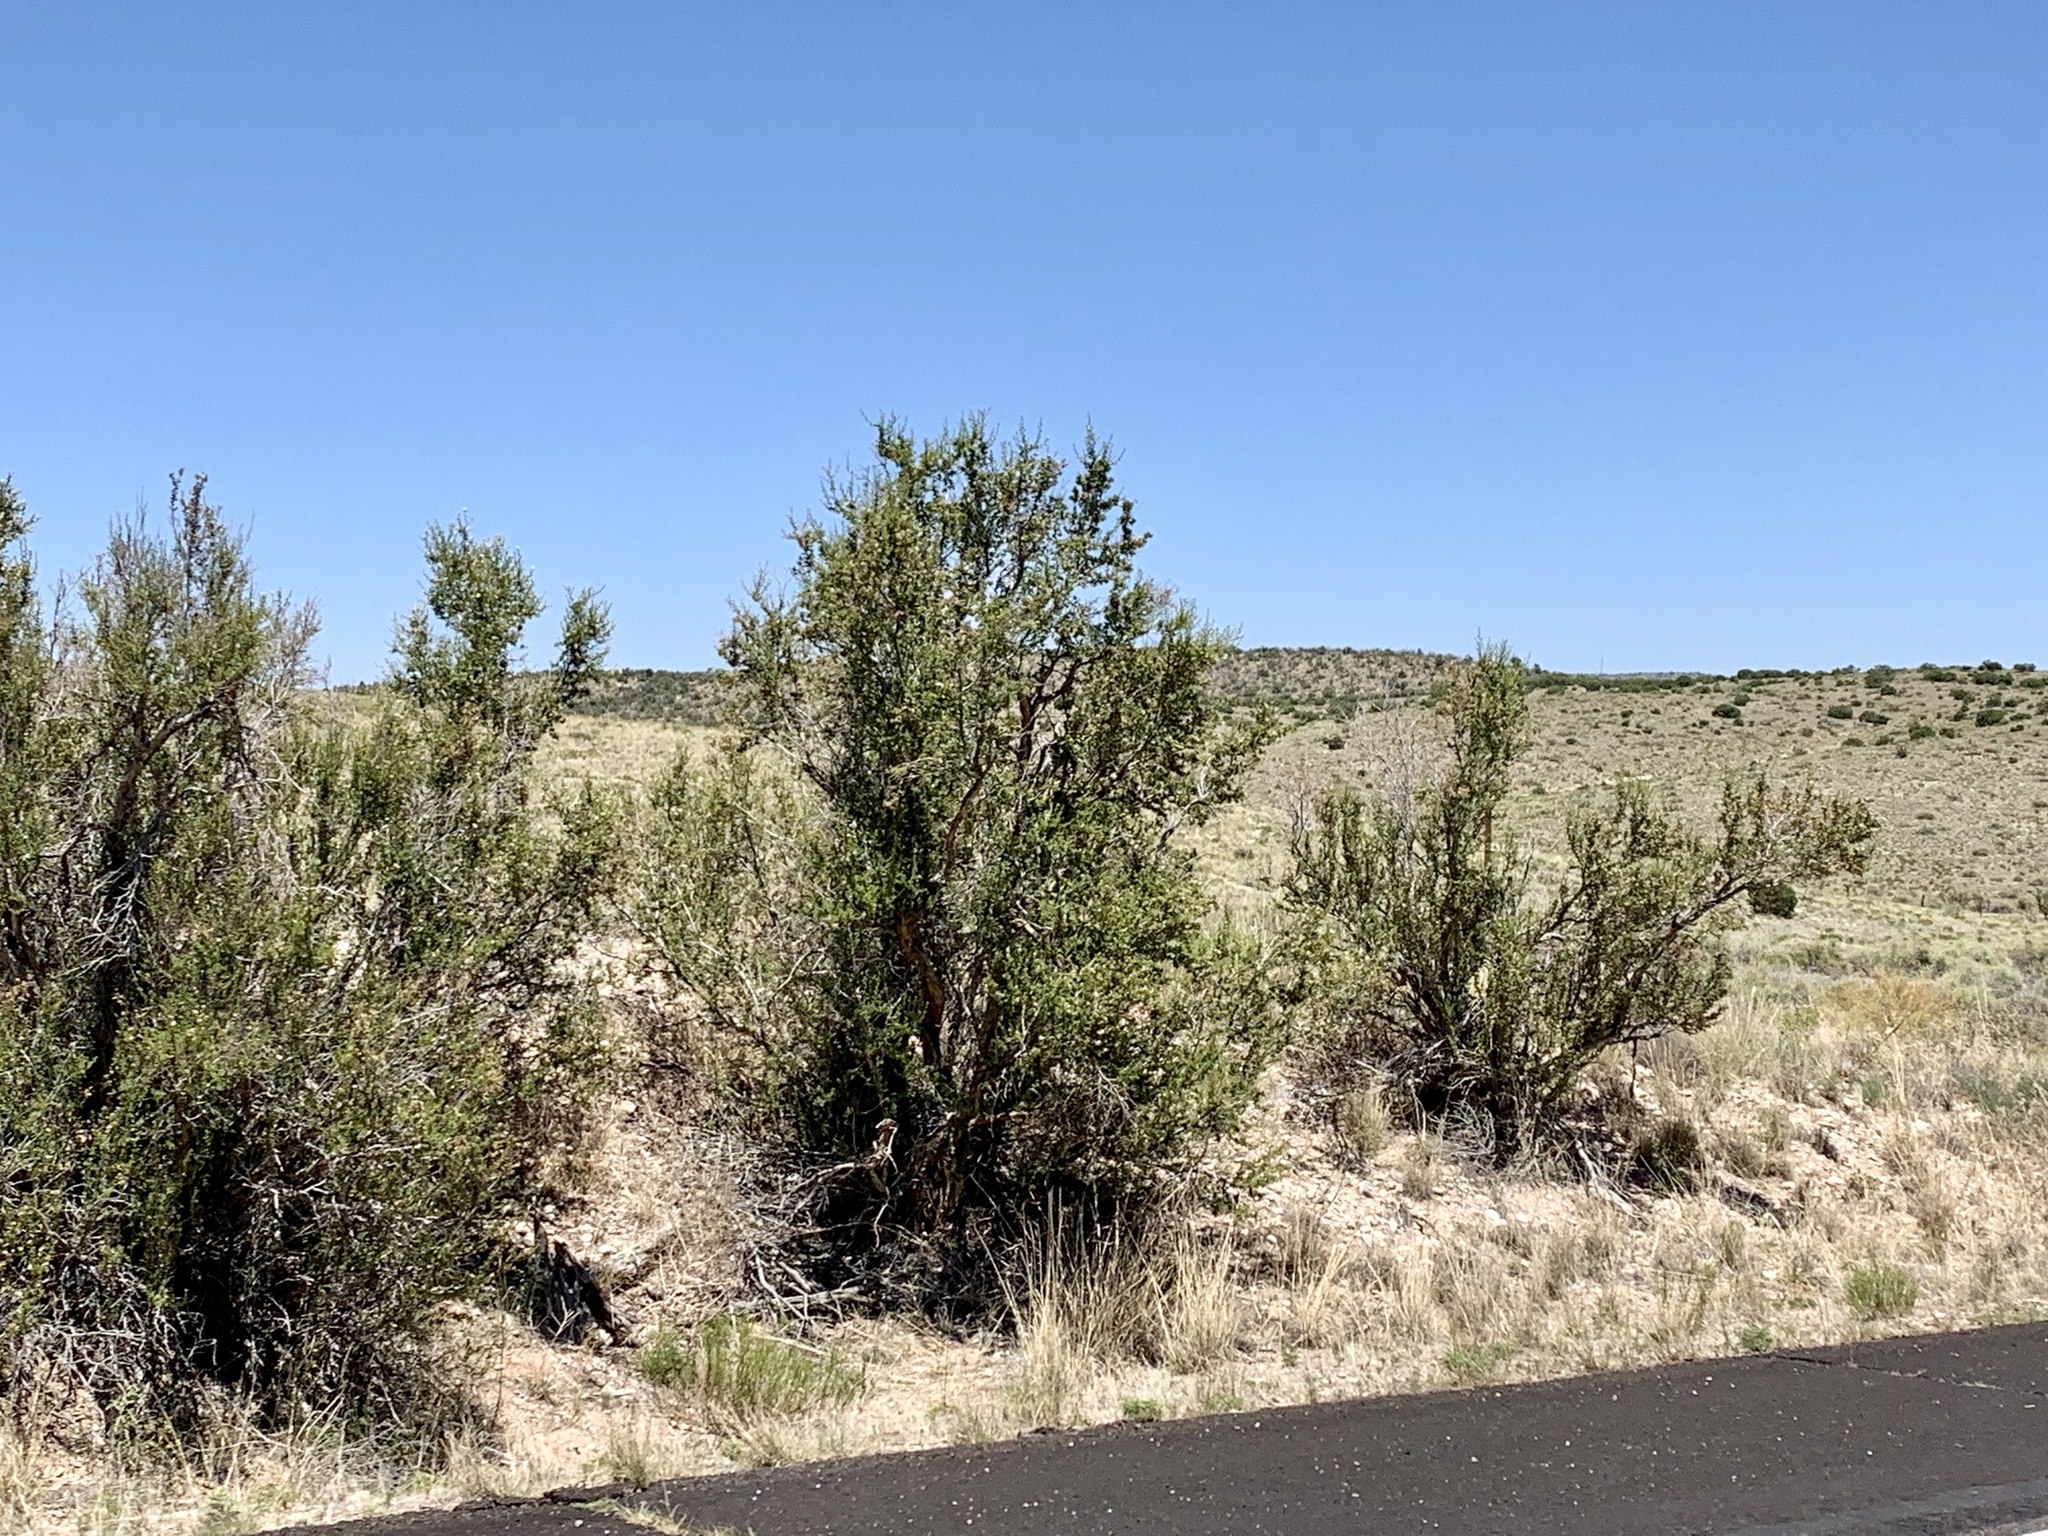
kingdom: Plantae
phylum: Tracheophyta
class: Magnoliopsida
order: Rosales
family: Rosaceae
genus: Purshia
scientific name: Purshia stansburiana
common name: Stansbury's cliffrose
